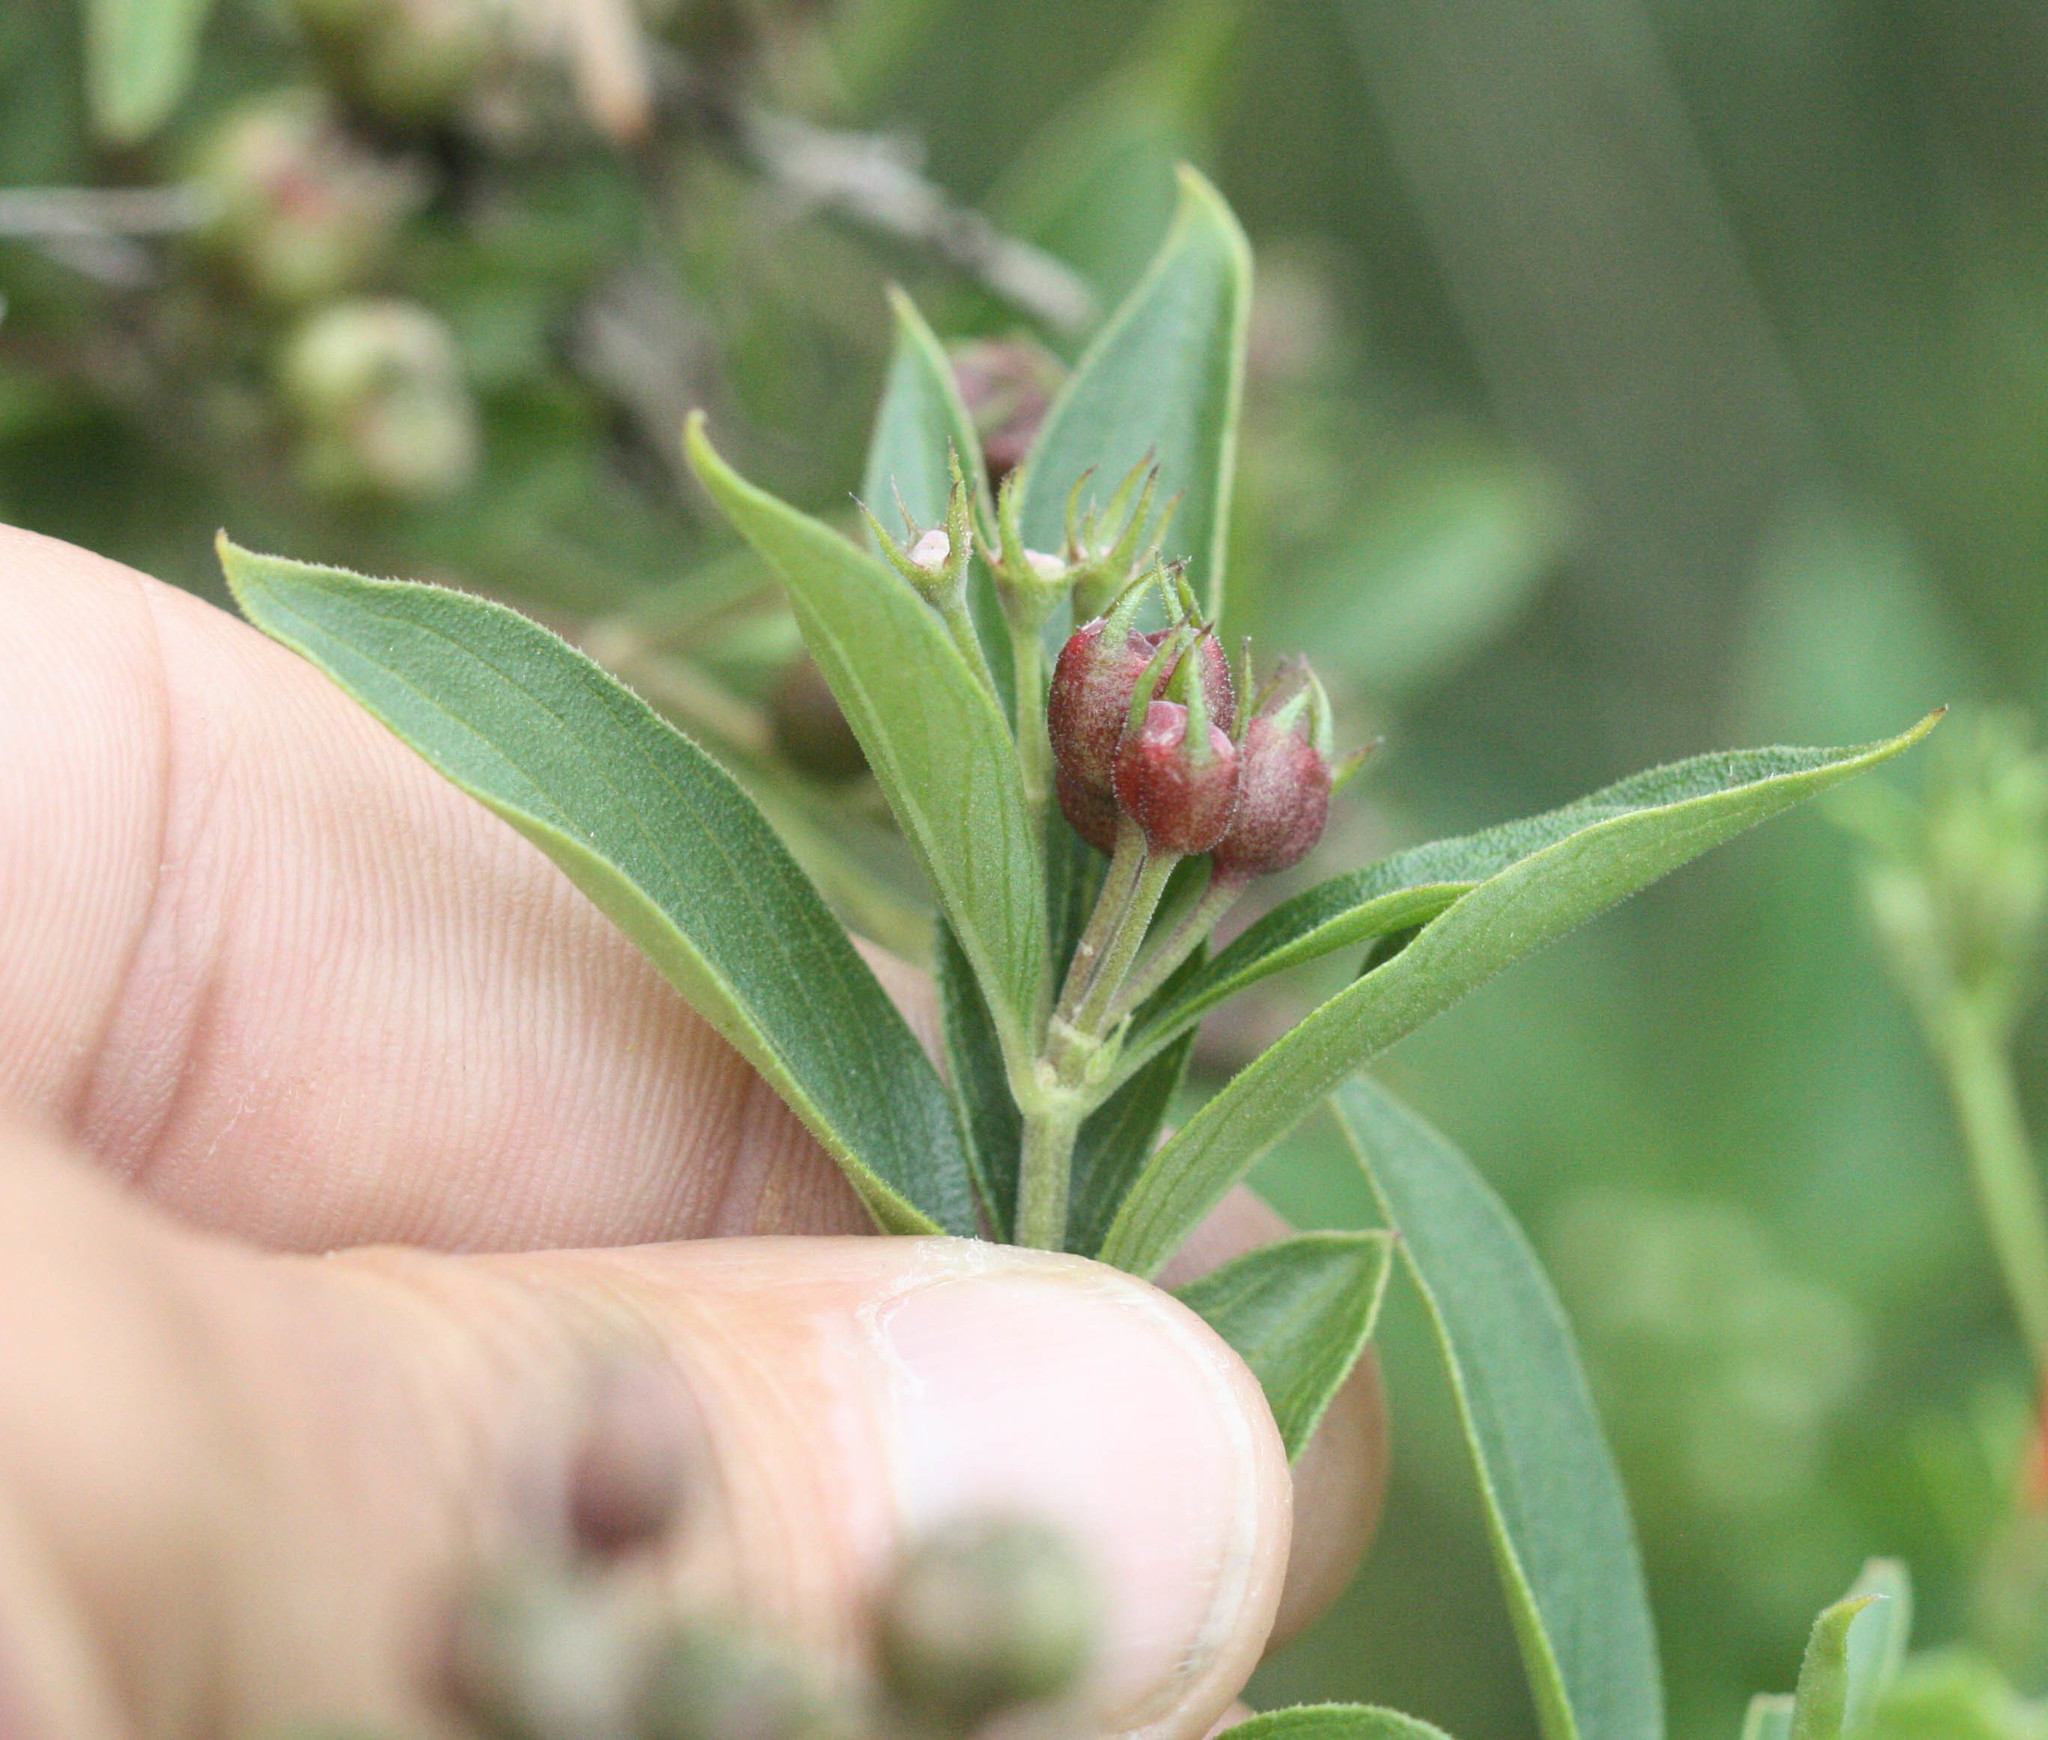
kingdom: Plantae
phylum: Tracheophyta
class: Magnoliopsida
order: Gentianales
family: Rubiaceae
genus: Bouvardia
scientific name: Bouvardia ternifolia
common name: Scarlet bouvardia
